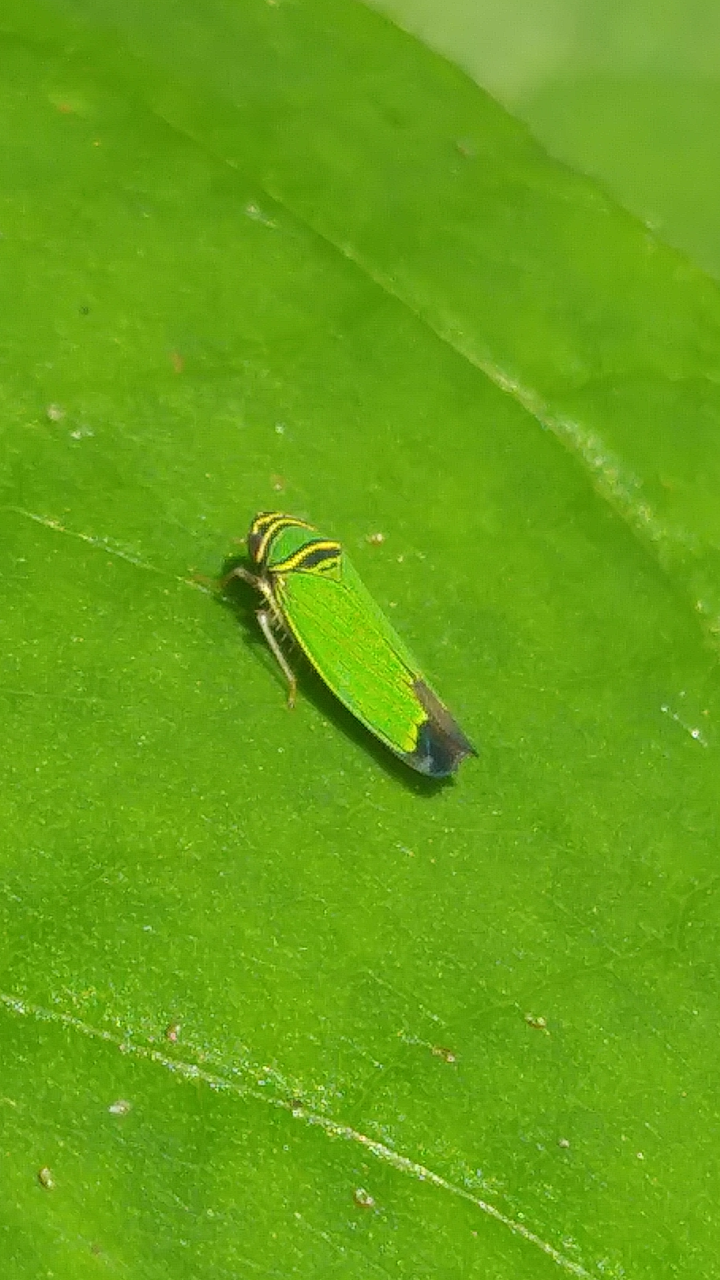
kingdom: Animalia
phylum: Arthropoda
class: Insecta
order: Hemiptera
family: Cicadellidae
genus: Tylozygus
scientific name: Tylozygus geometricus
